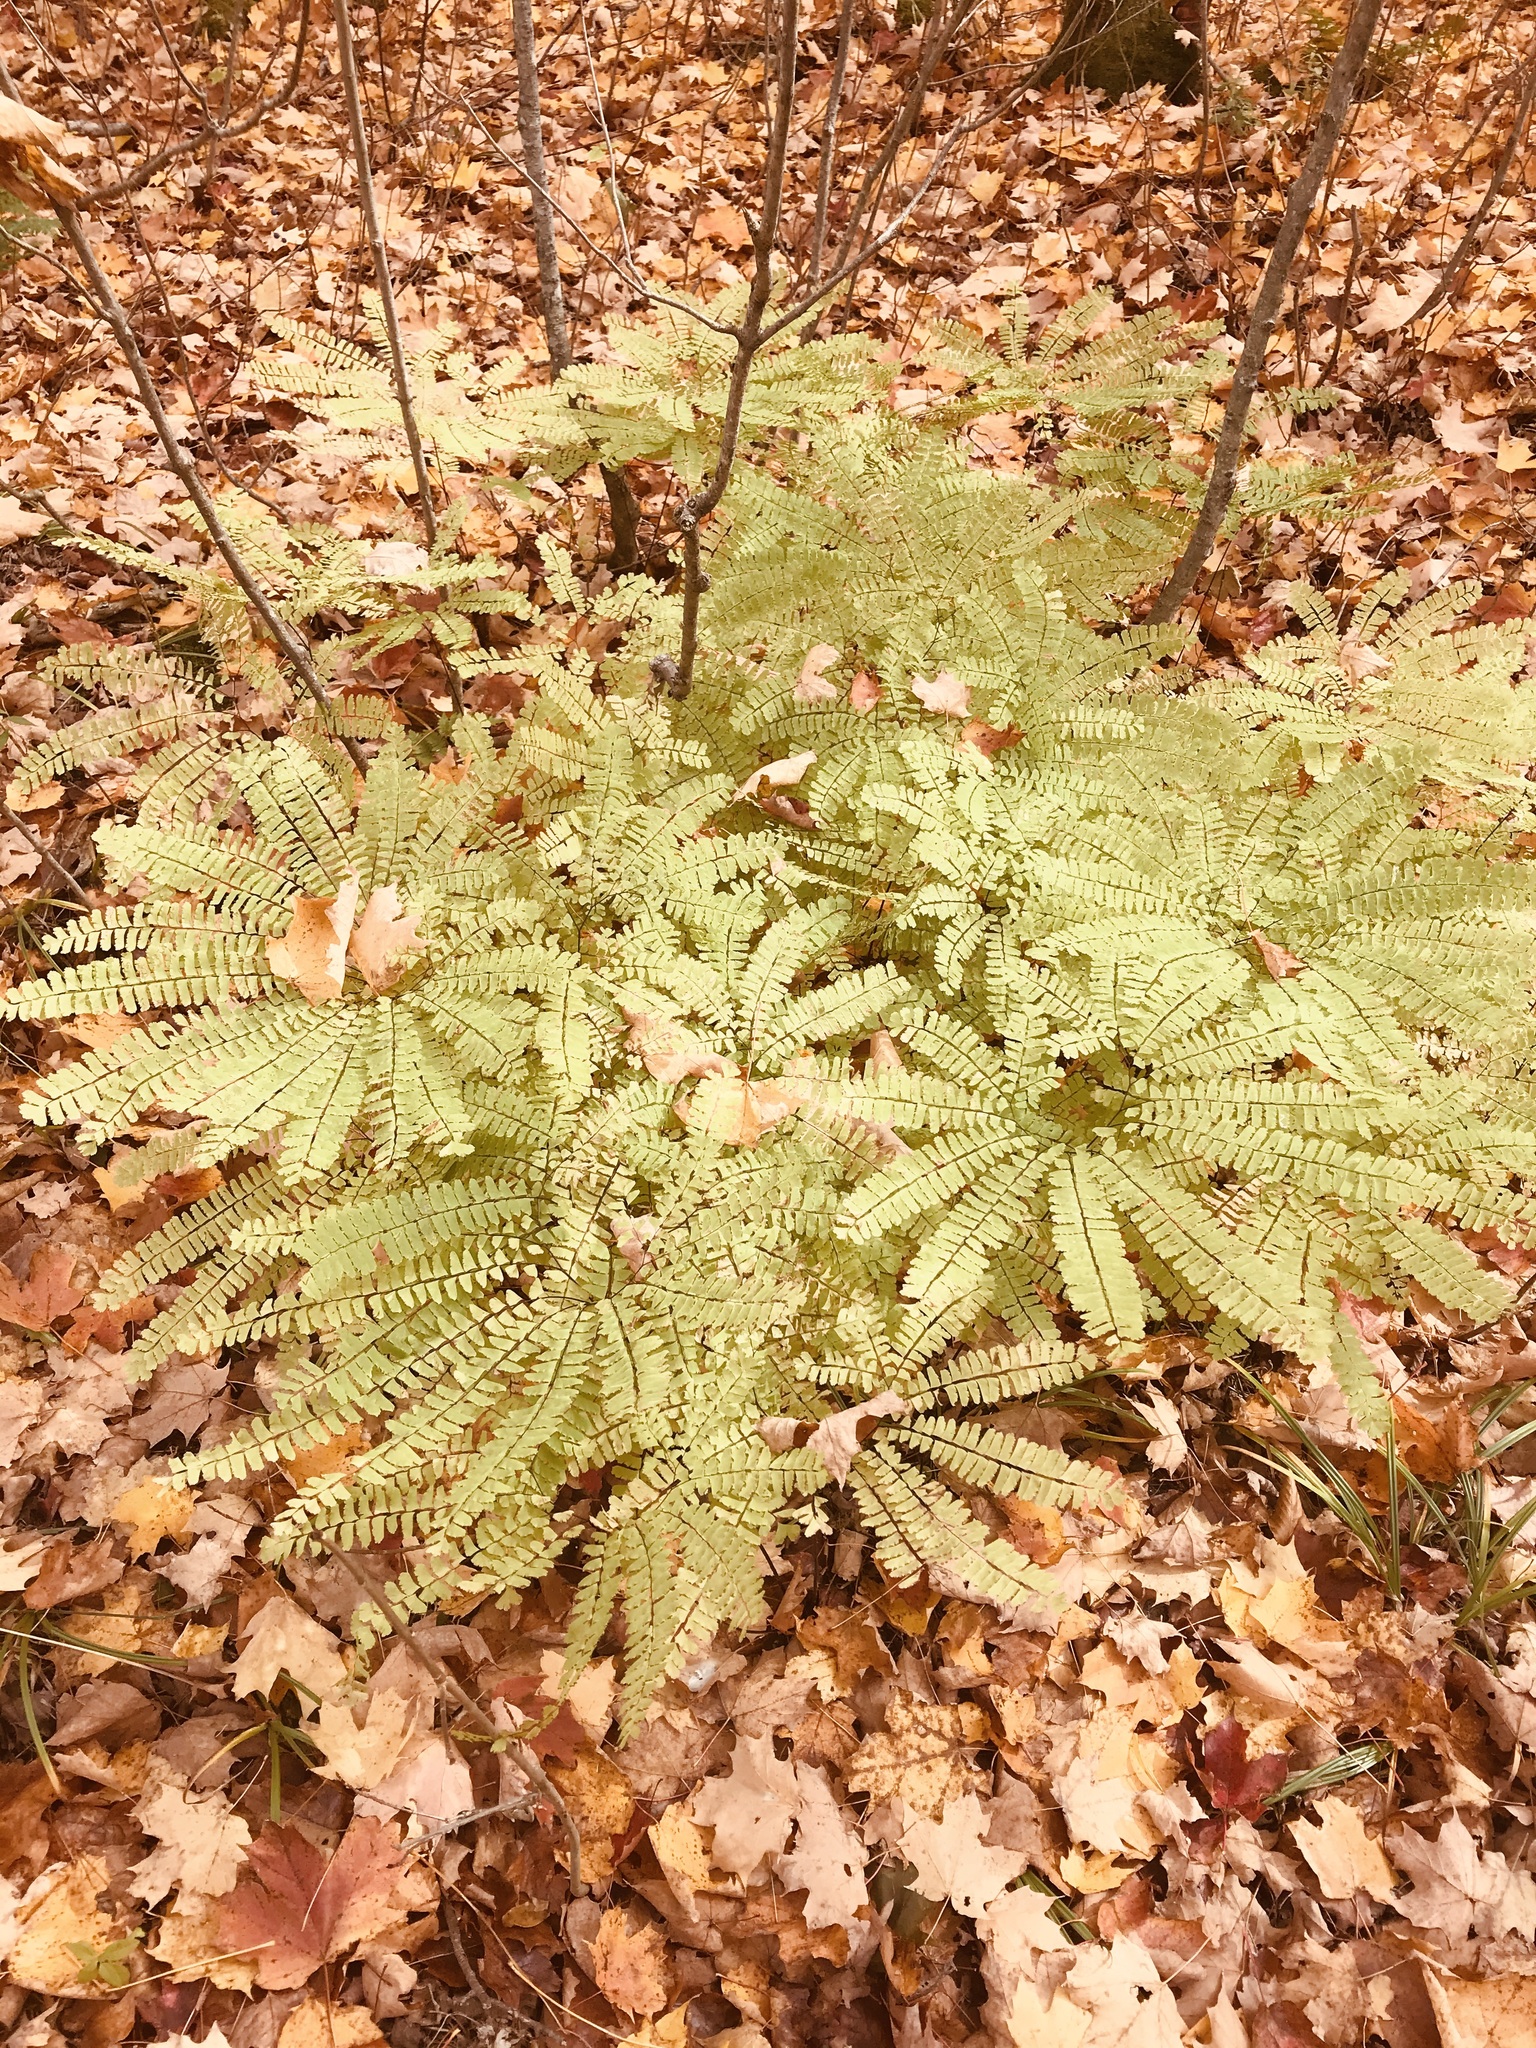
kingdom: Plantae
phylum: Tracheophyta
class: Polypodiopsida
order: Polypodiales
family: Pteridaceae
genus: Adiantum
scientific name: Adiantum pedatum
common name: Five-finger fern
